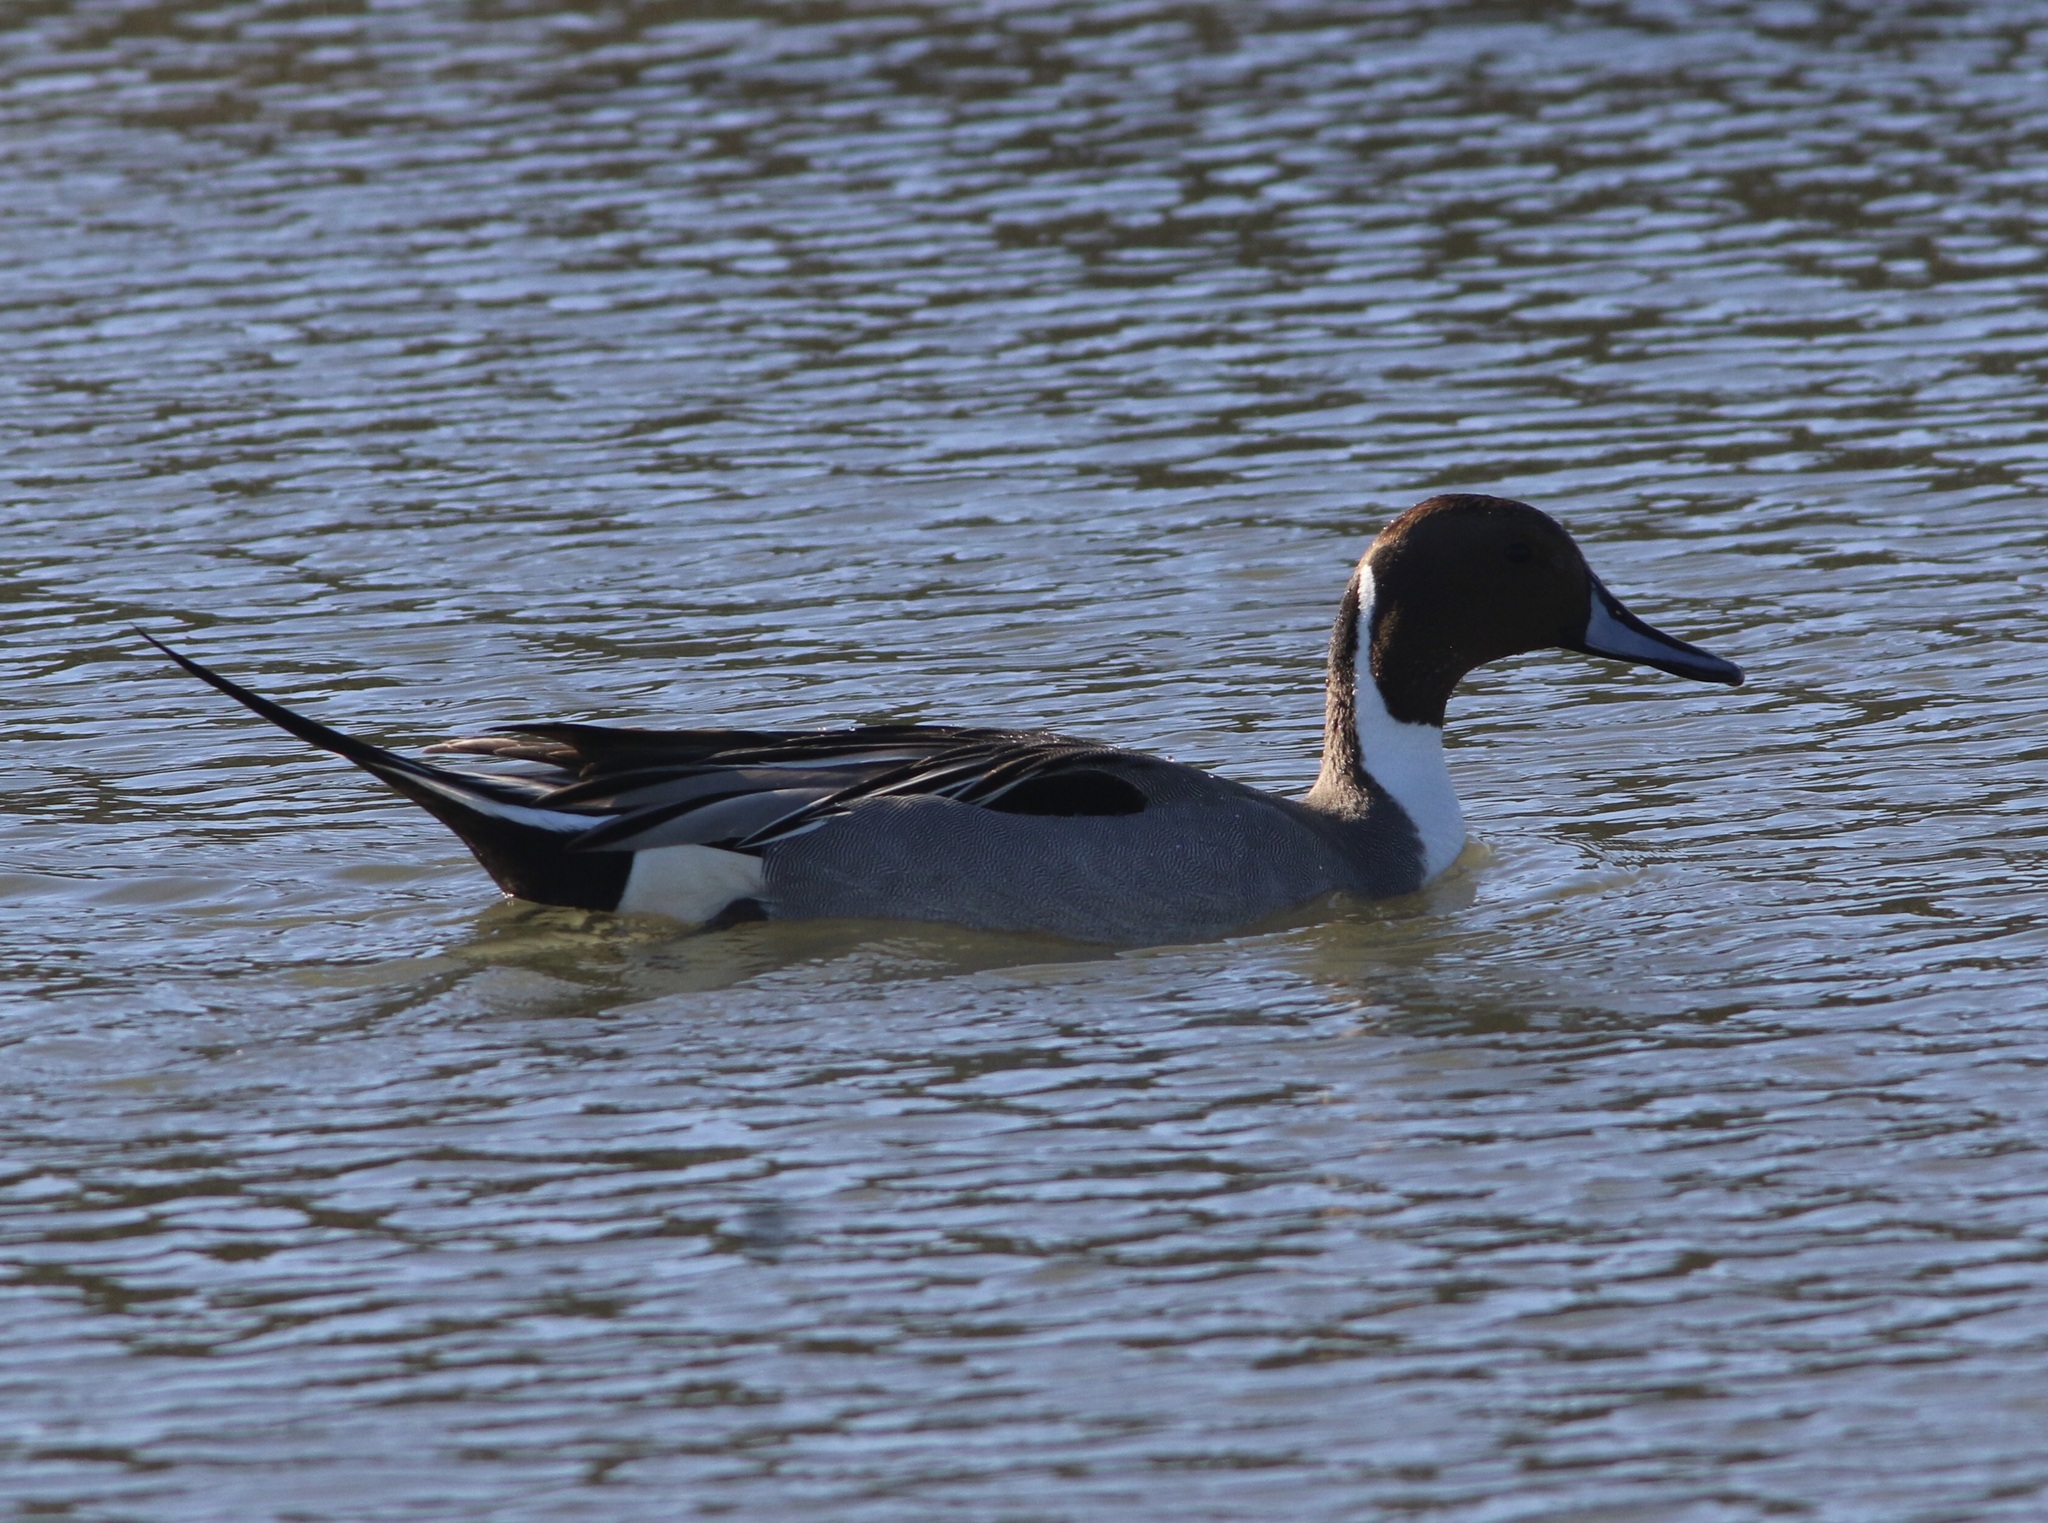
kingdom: Animalia
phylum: Chordata
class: Aves
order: Anseriformes
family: Anatidae
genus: Anas
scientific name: Anas acuta
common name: Northern pintail
